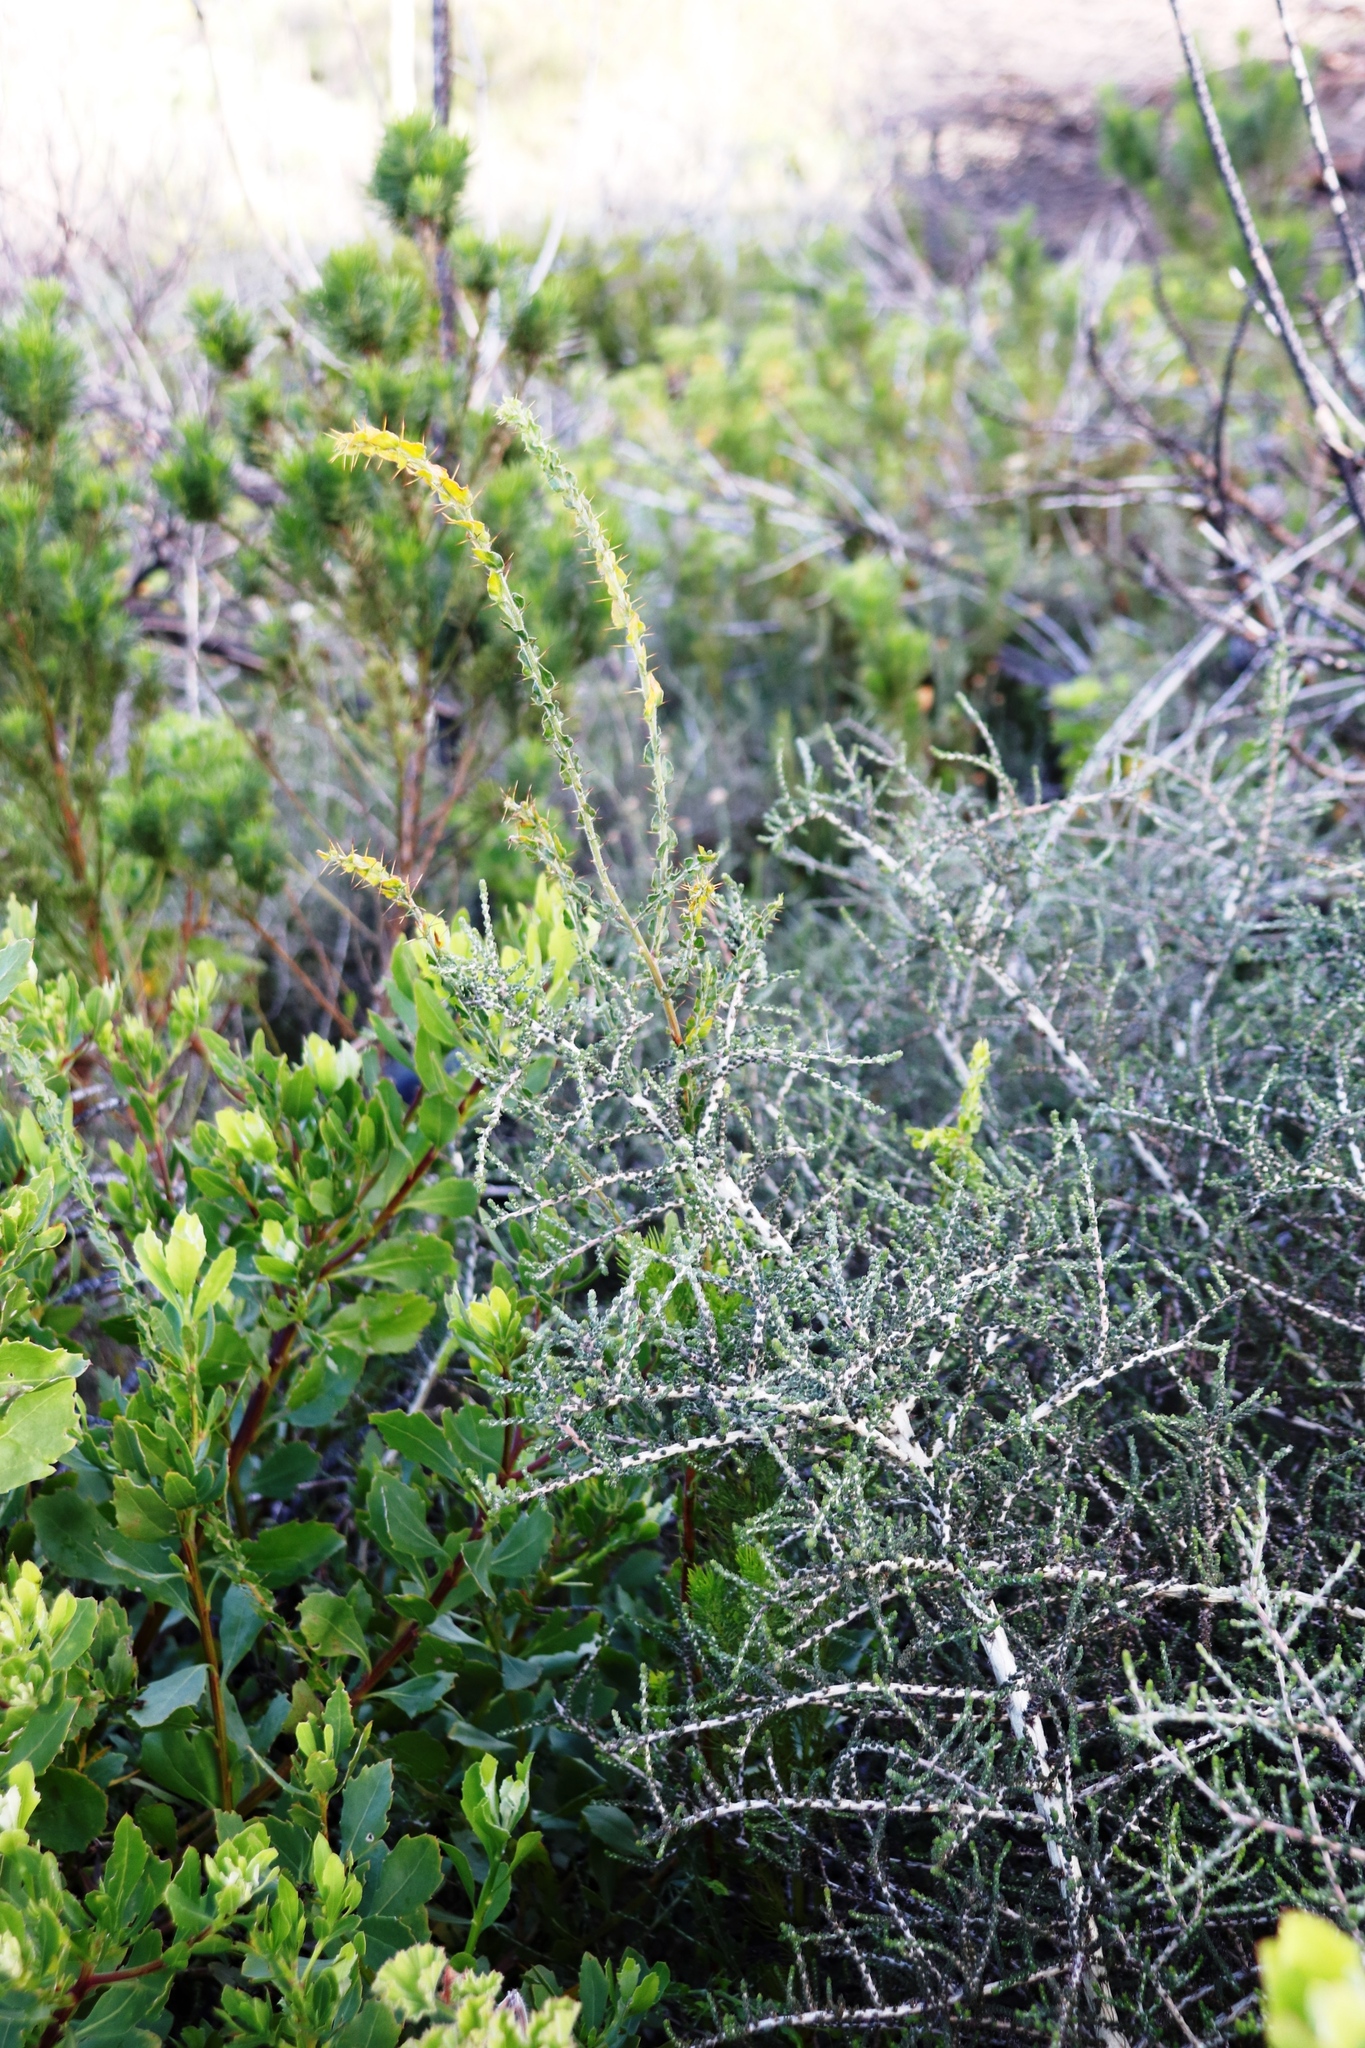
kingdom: Plantae
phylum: Tracheophyta
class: Magnoliopsida
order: Fabales
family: Fabaceae
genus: Acacia
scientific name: Acacia paradoxa
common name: Paradox acacia
